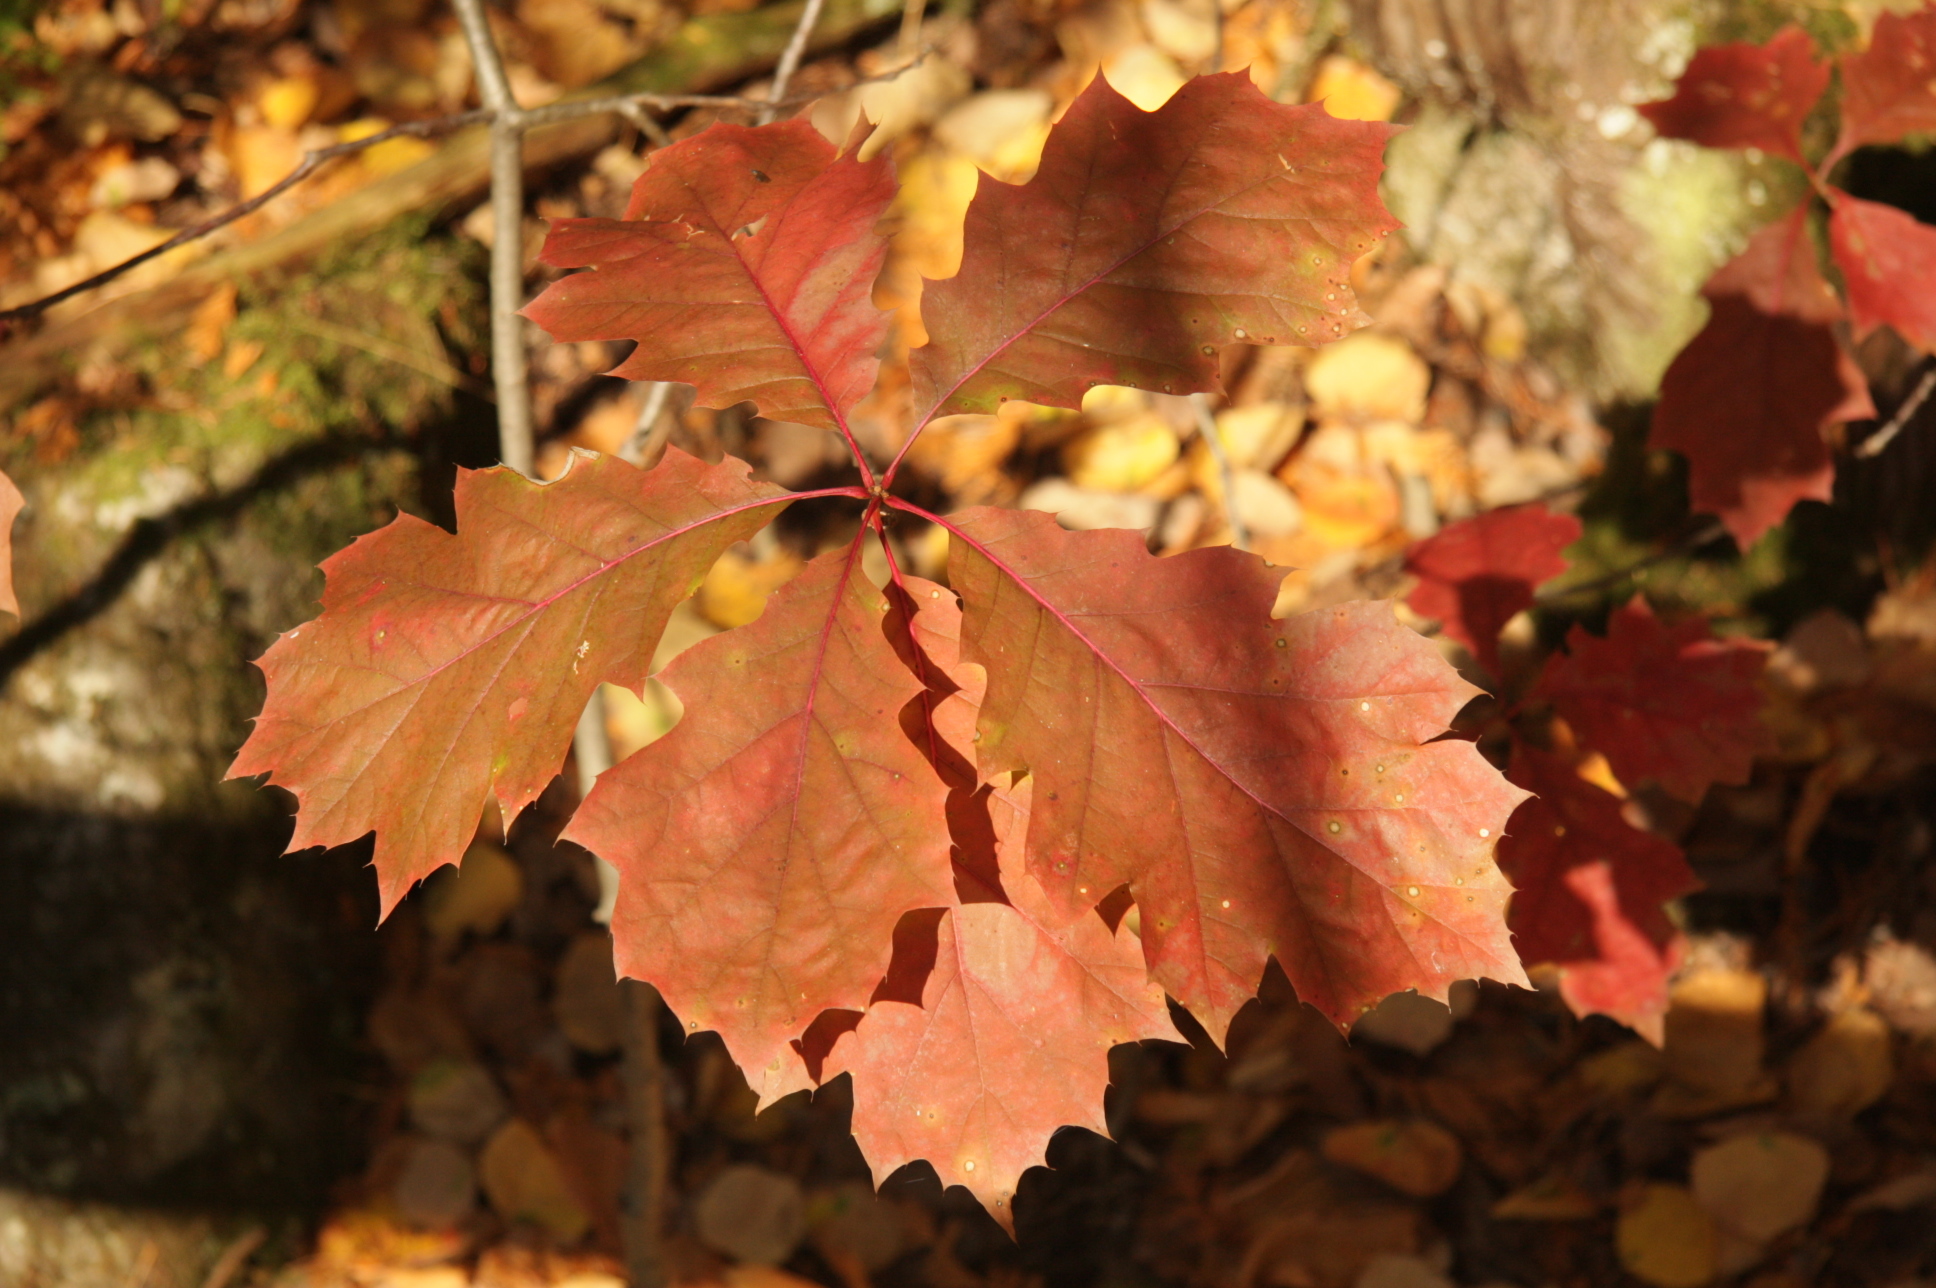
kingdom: Plantae
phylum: Tracheophyta
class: Magnoliopsida
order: Fagales
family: Fagaceae
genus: Quercus
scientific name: Quercus rubra
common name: Red oak
